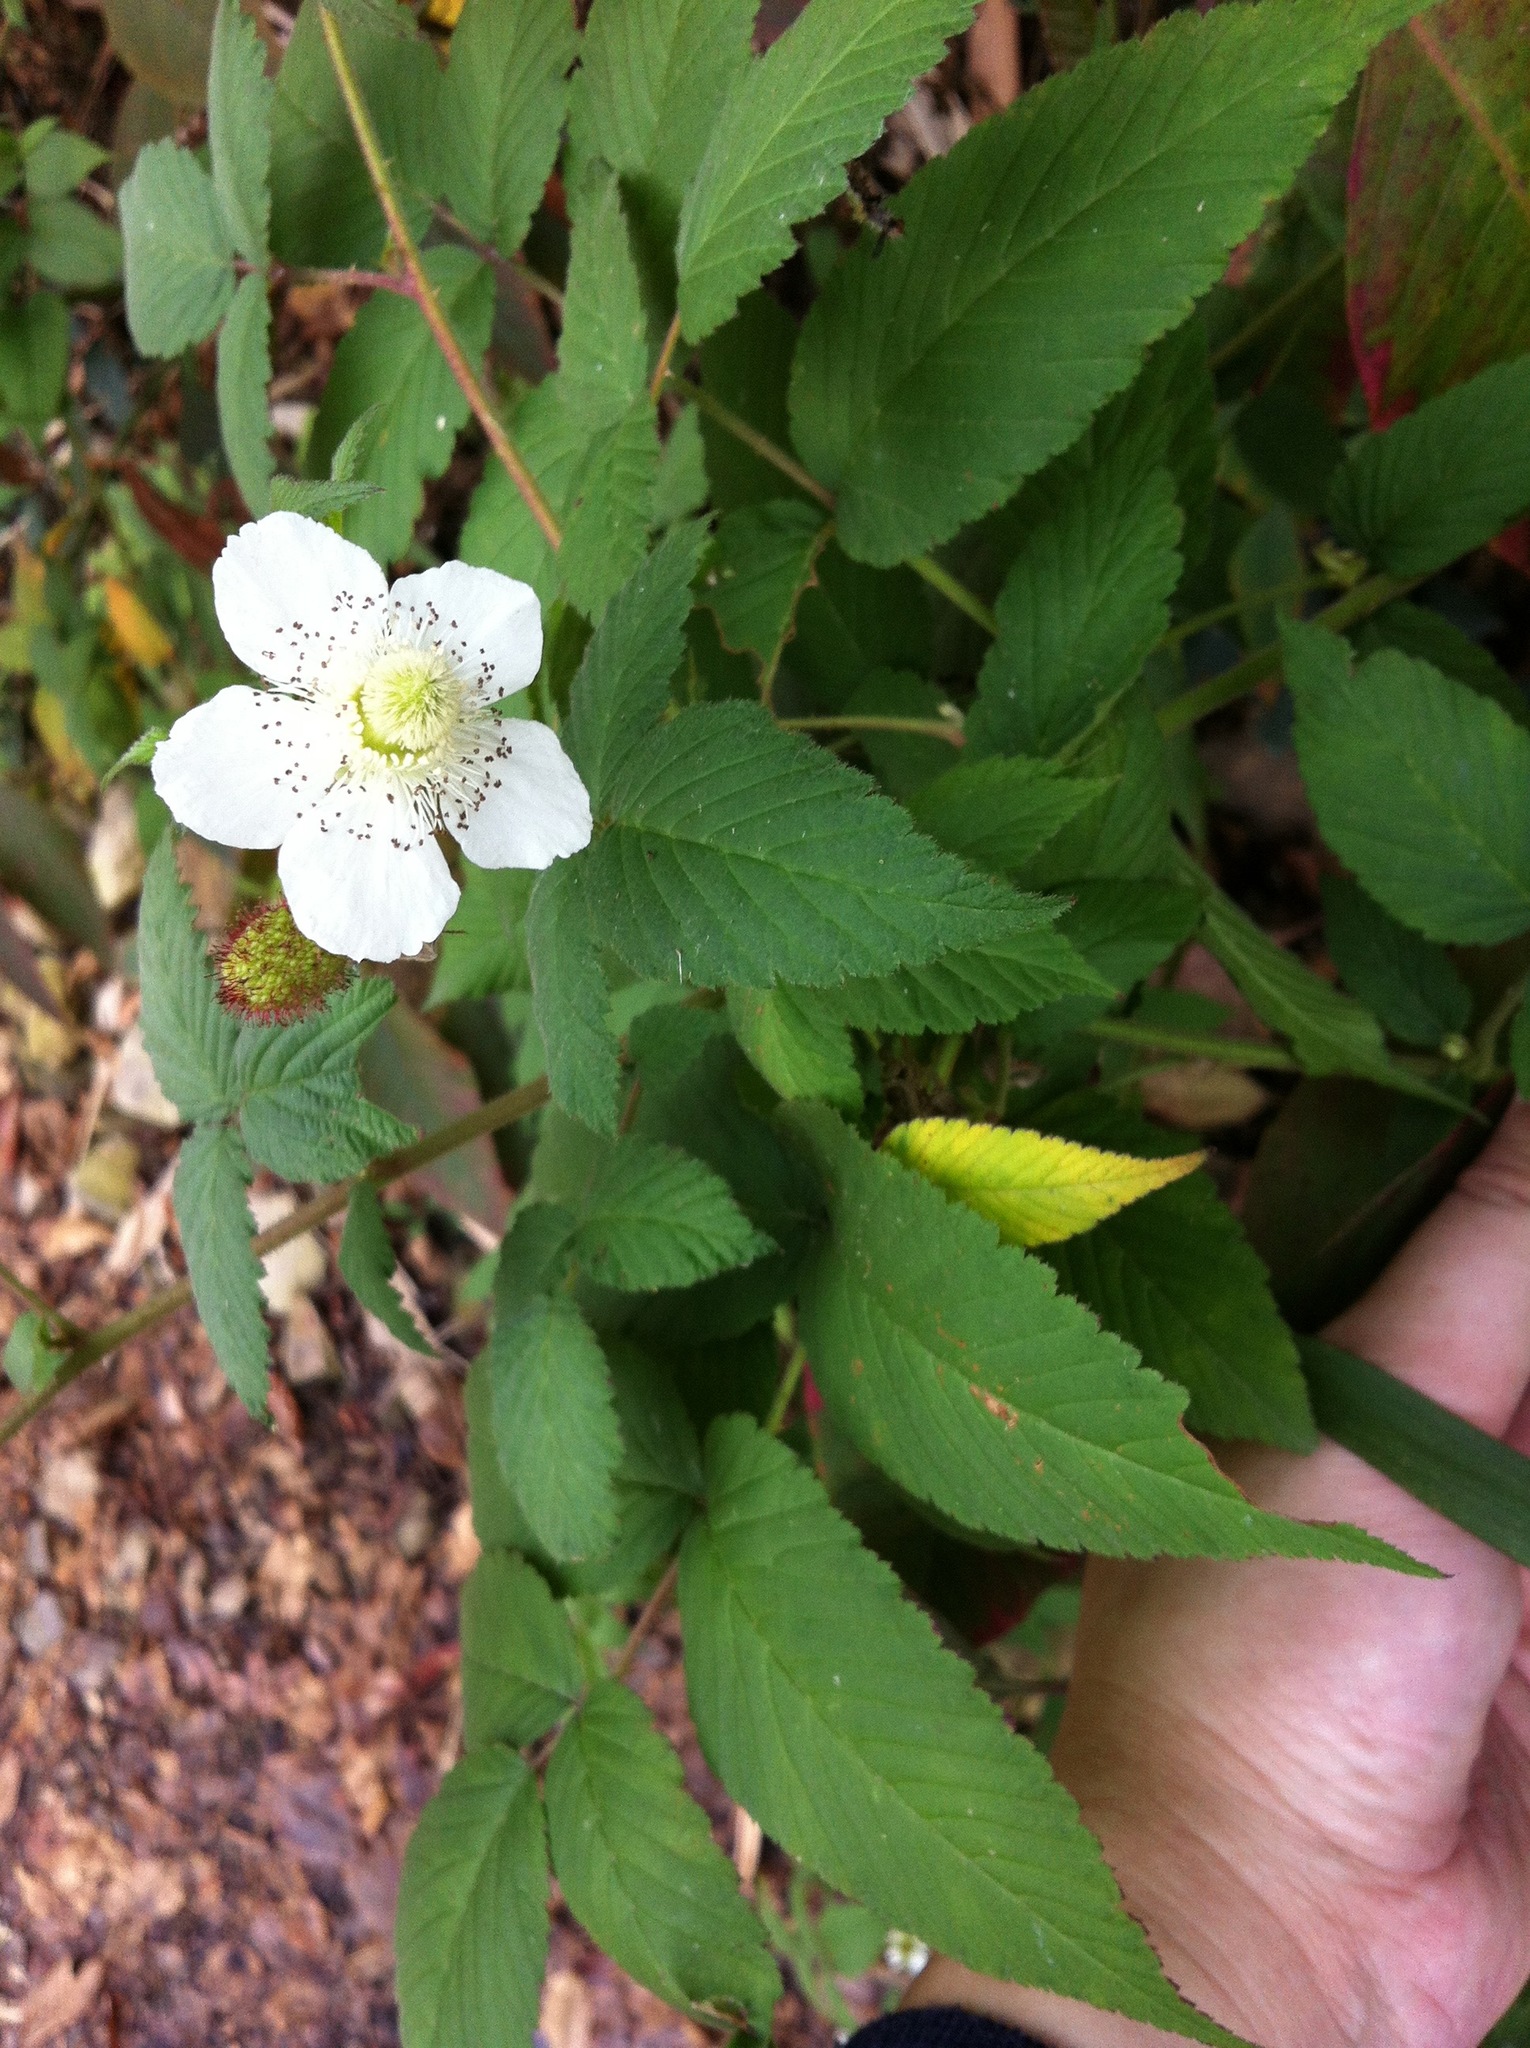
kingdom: Plantae
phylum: Tracheophyta
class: Magnoliopsida
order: Rosales
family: Rosaceae
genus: Rubus
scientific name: Rubus croceacanthus
